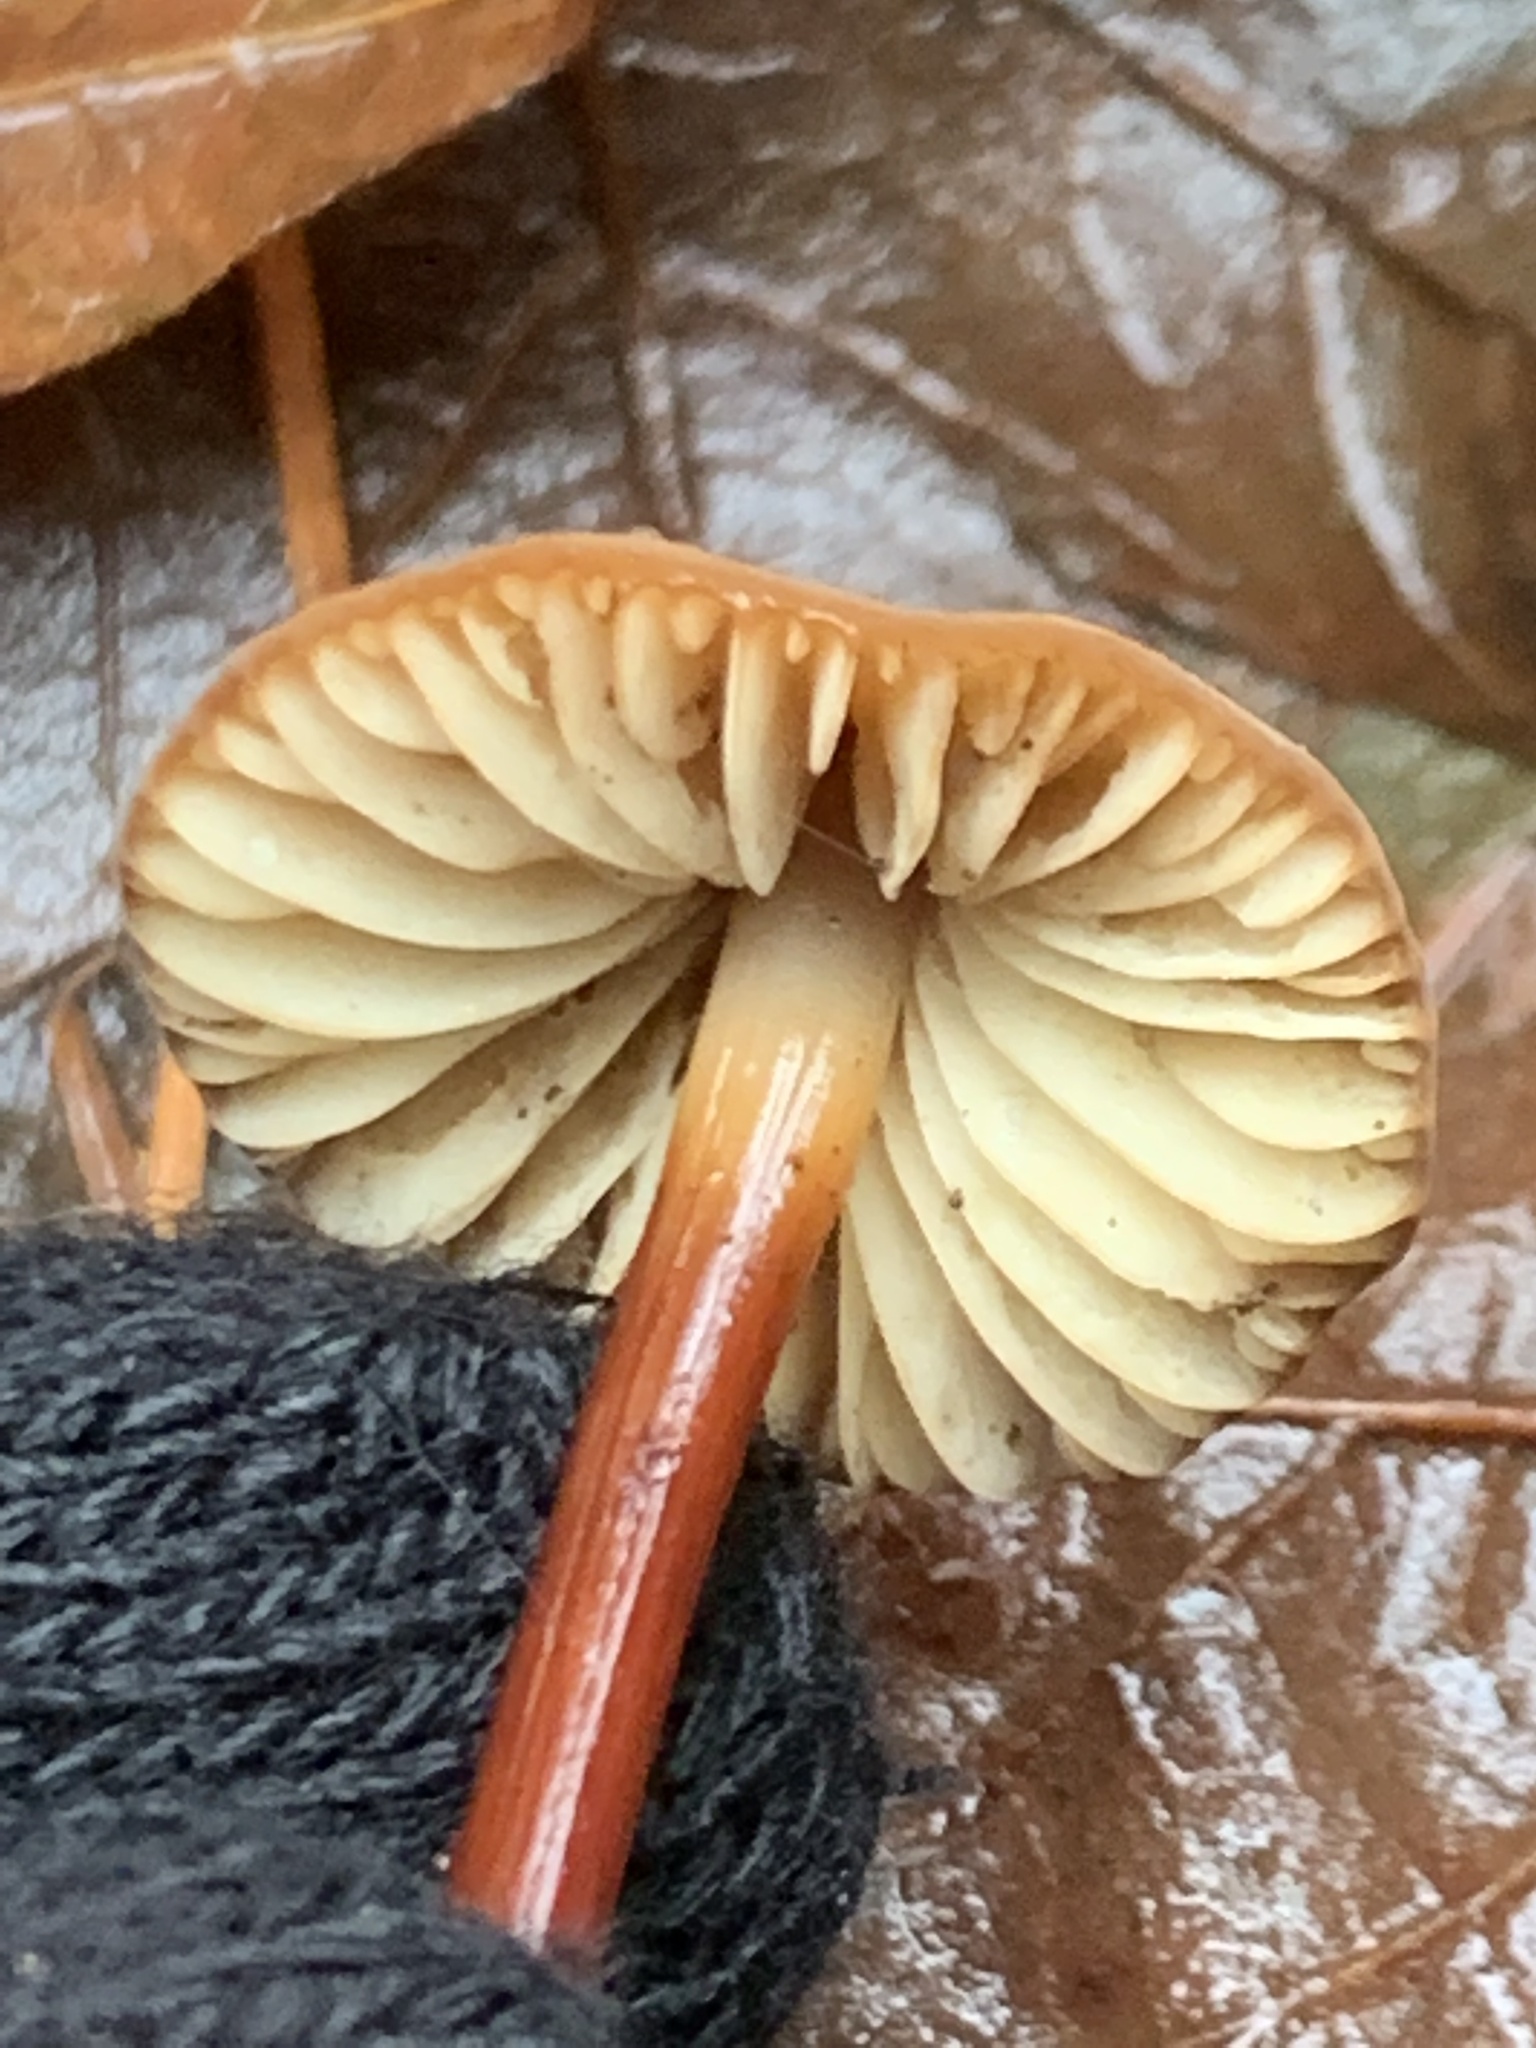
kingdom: Fungi
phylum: Basidiomycota
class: Agaricomycetes
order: Agaricales
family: Marasmiaceae
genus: Marasmius
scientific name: Marasmius plicatulus
